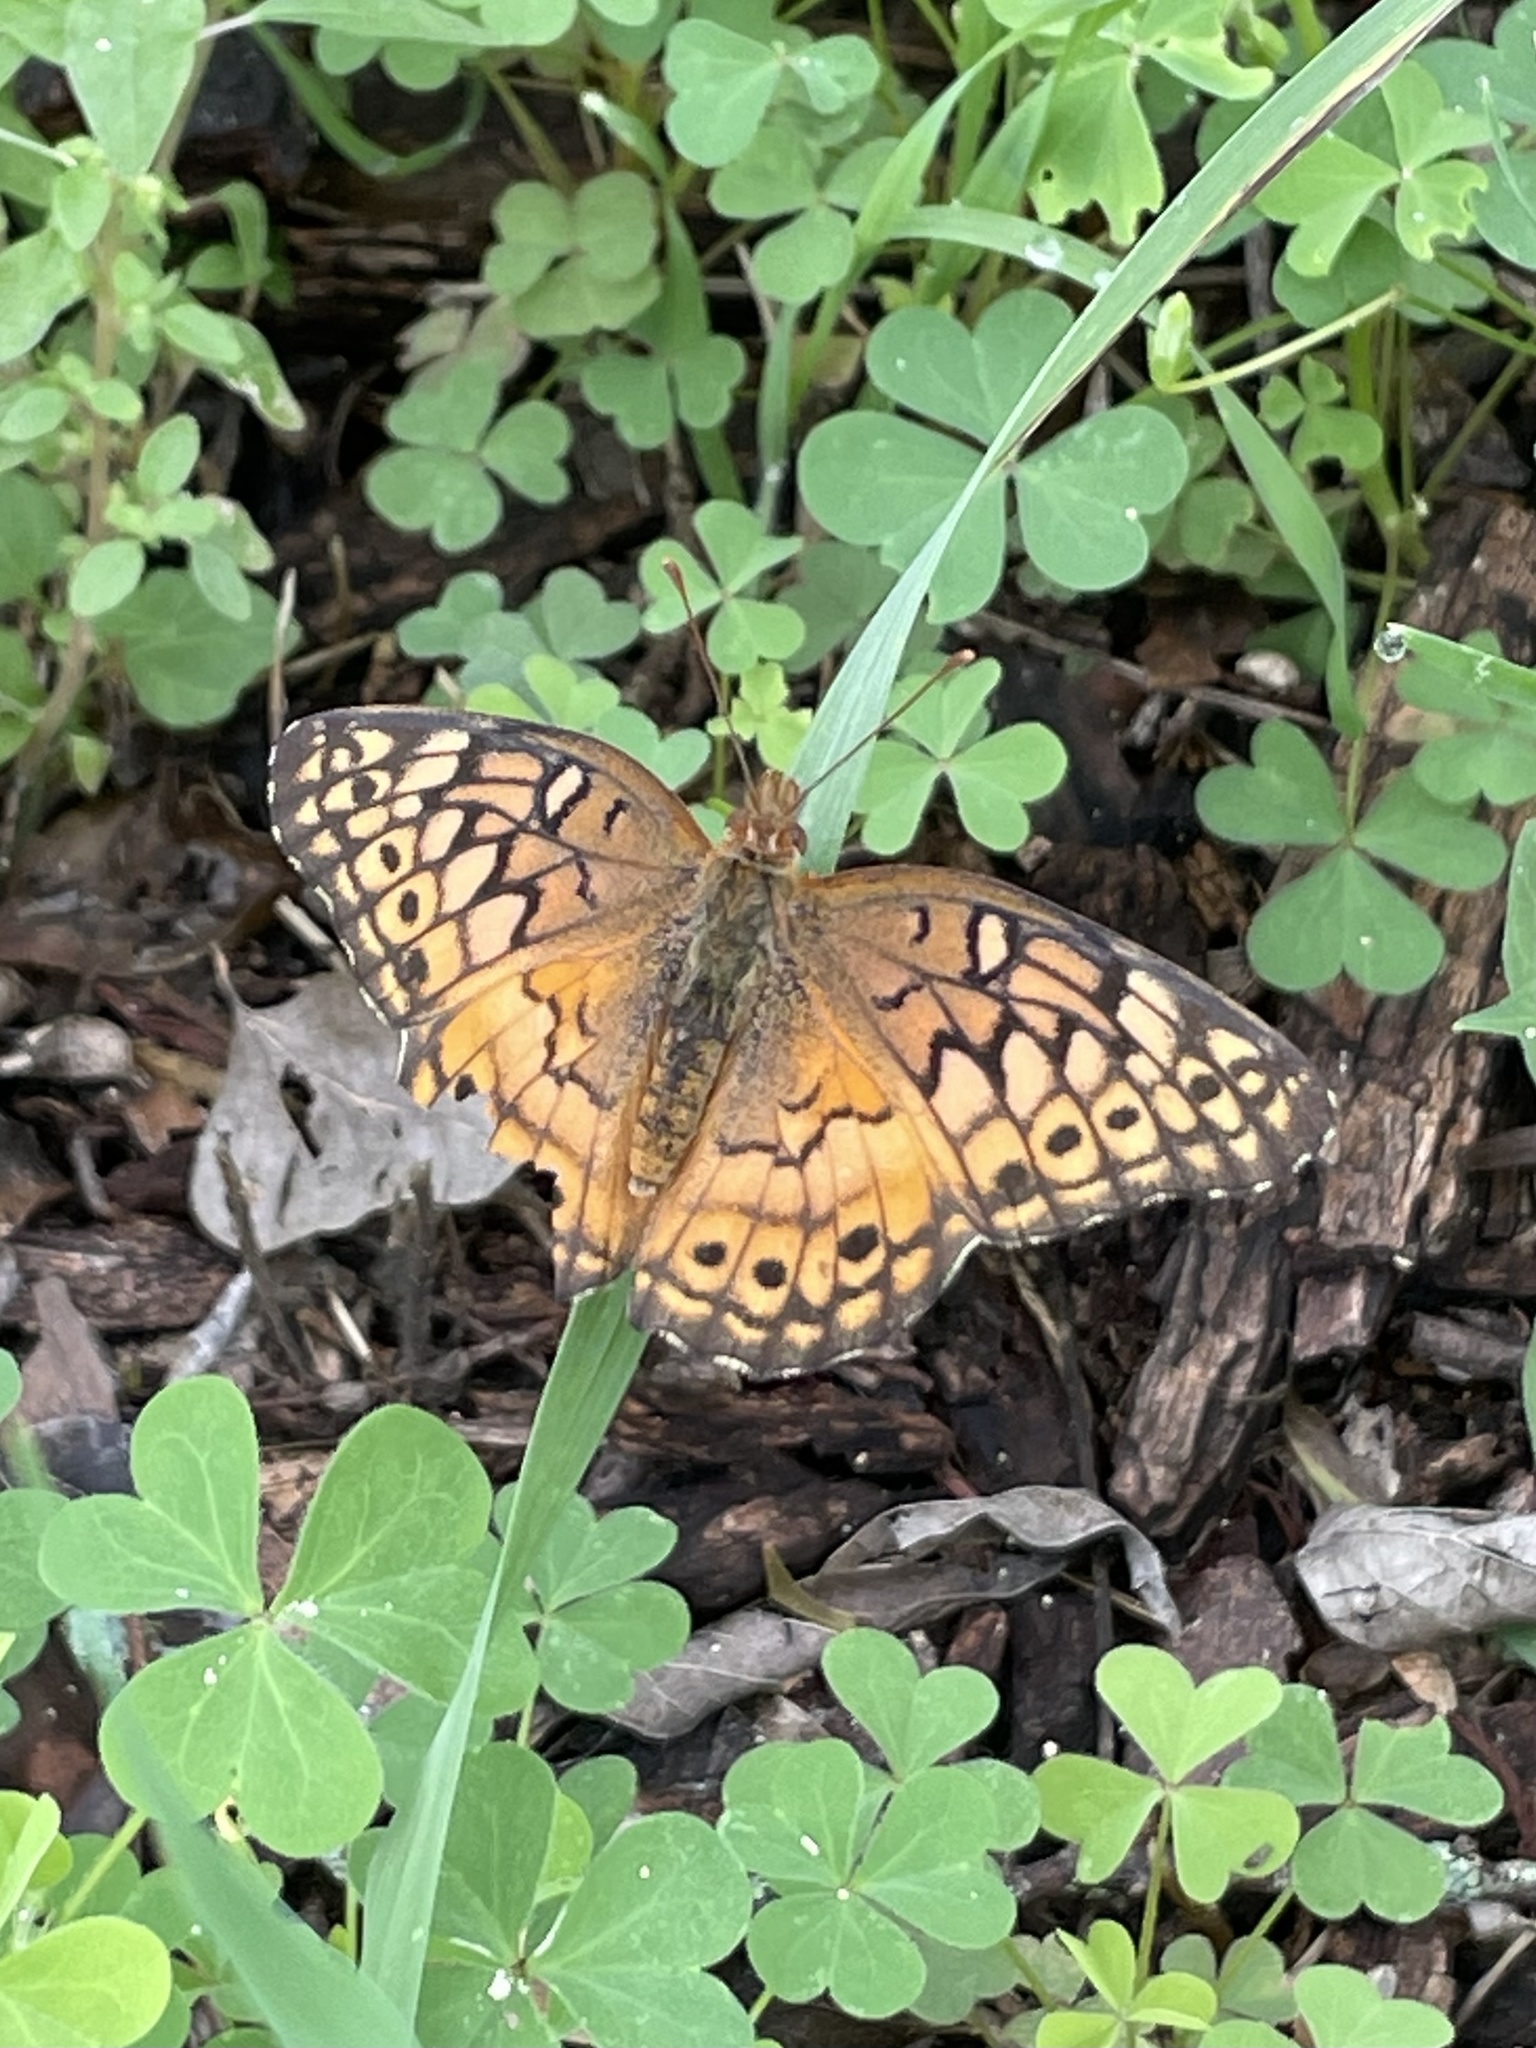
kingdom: Animalia
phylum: Arthropoda
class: Insecta
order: Lepidoptera
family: Nymphalidae
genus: Euptoieta
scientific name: Euptoieta claudia
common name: Variegated fritillary
